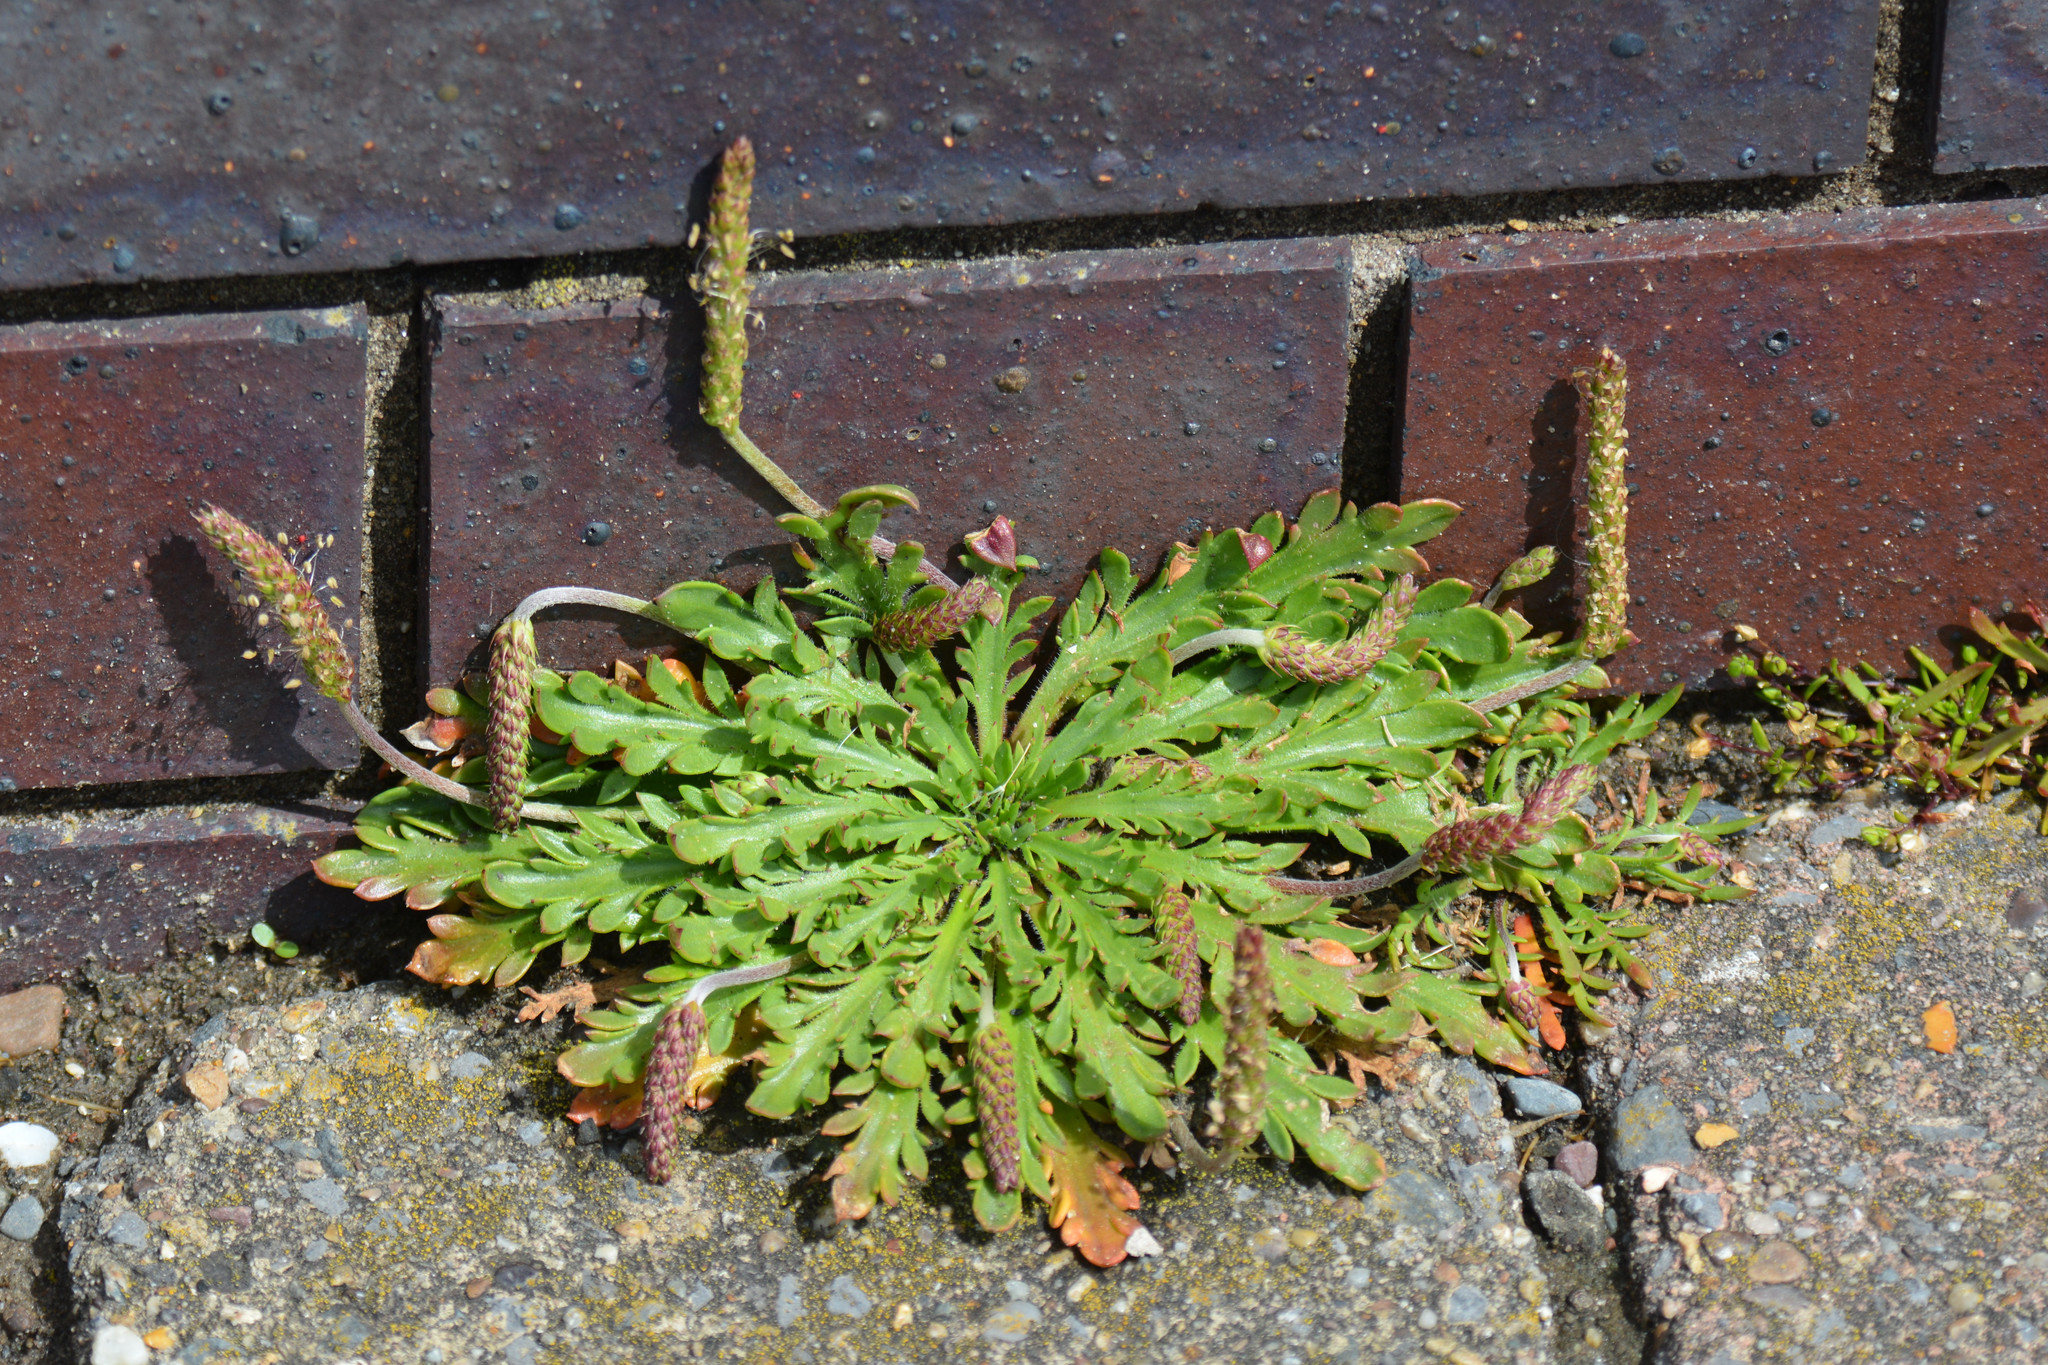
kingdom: Plantae
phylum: Tracheophyta
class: Magnoliopsida
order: Lamiales
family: Plantaginaceae
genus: Plantago
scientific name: Plantago coronopus
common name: Buck's-horn plantain
